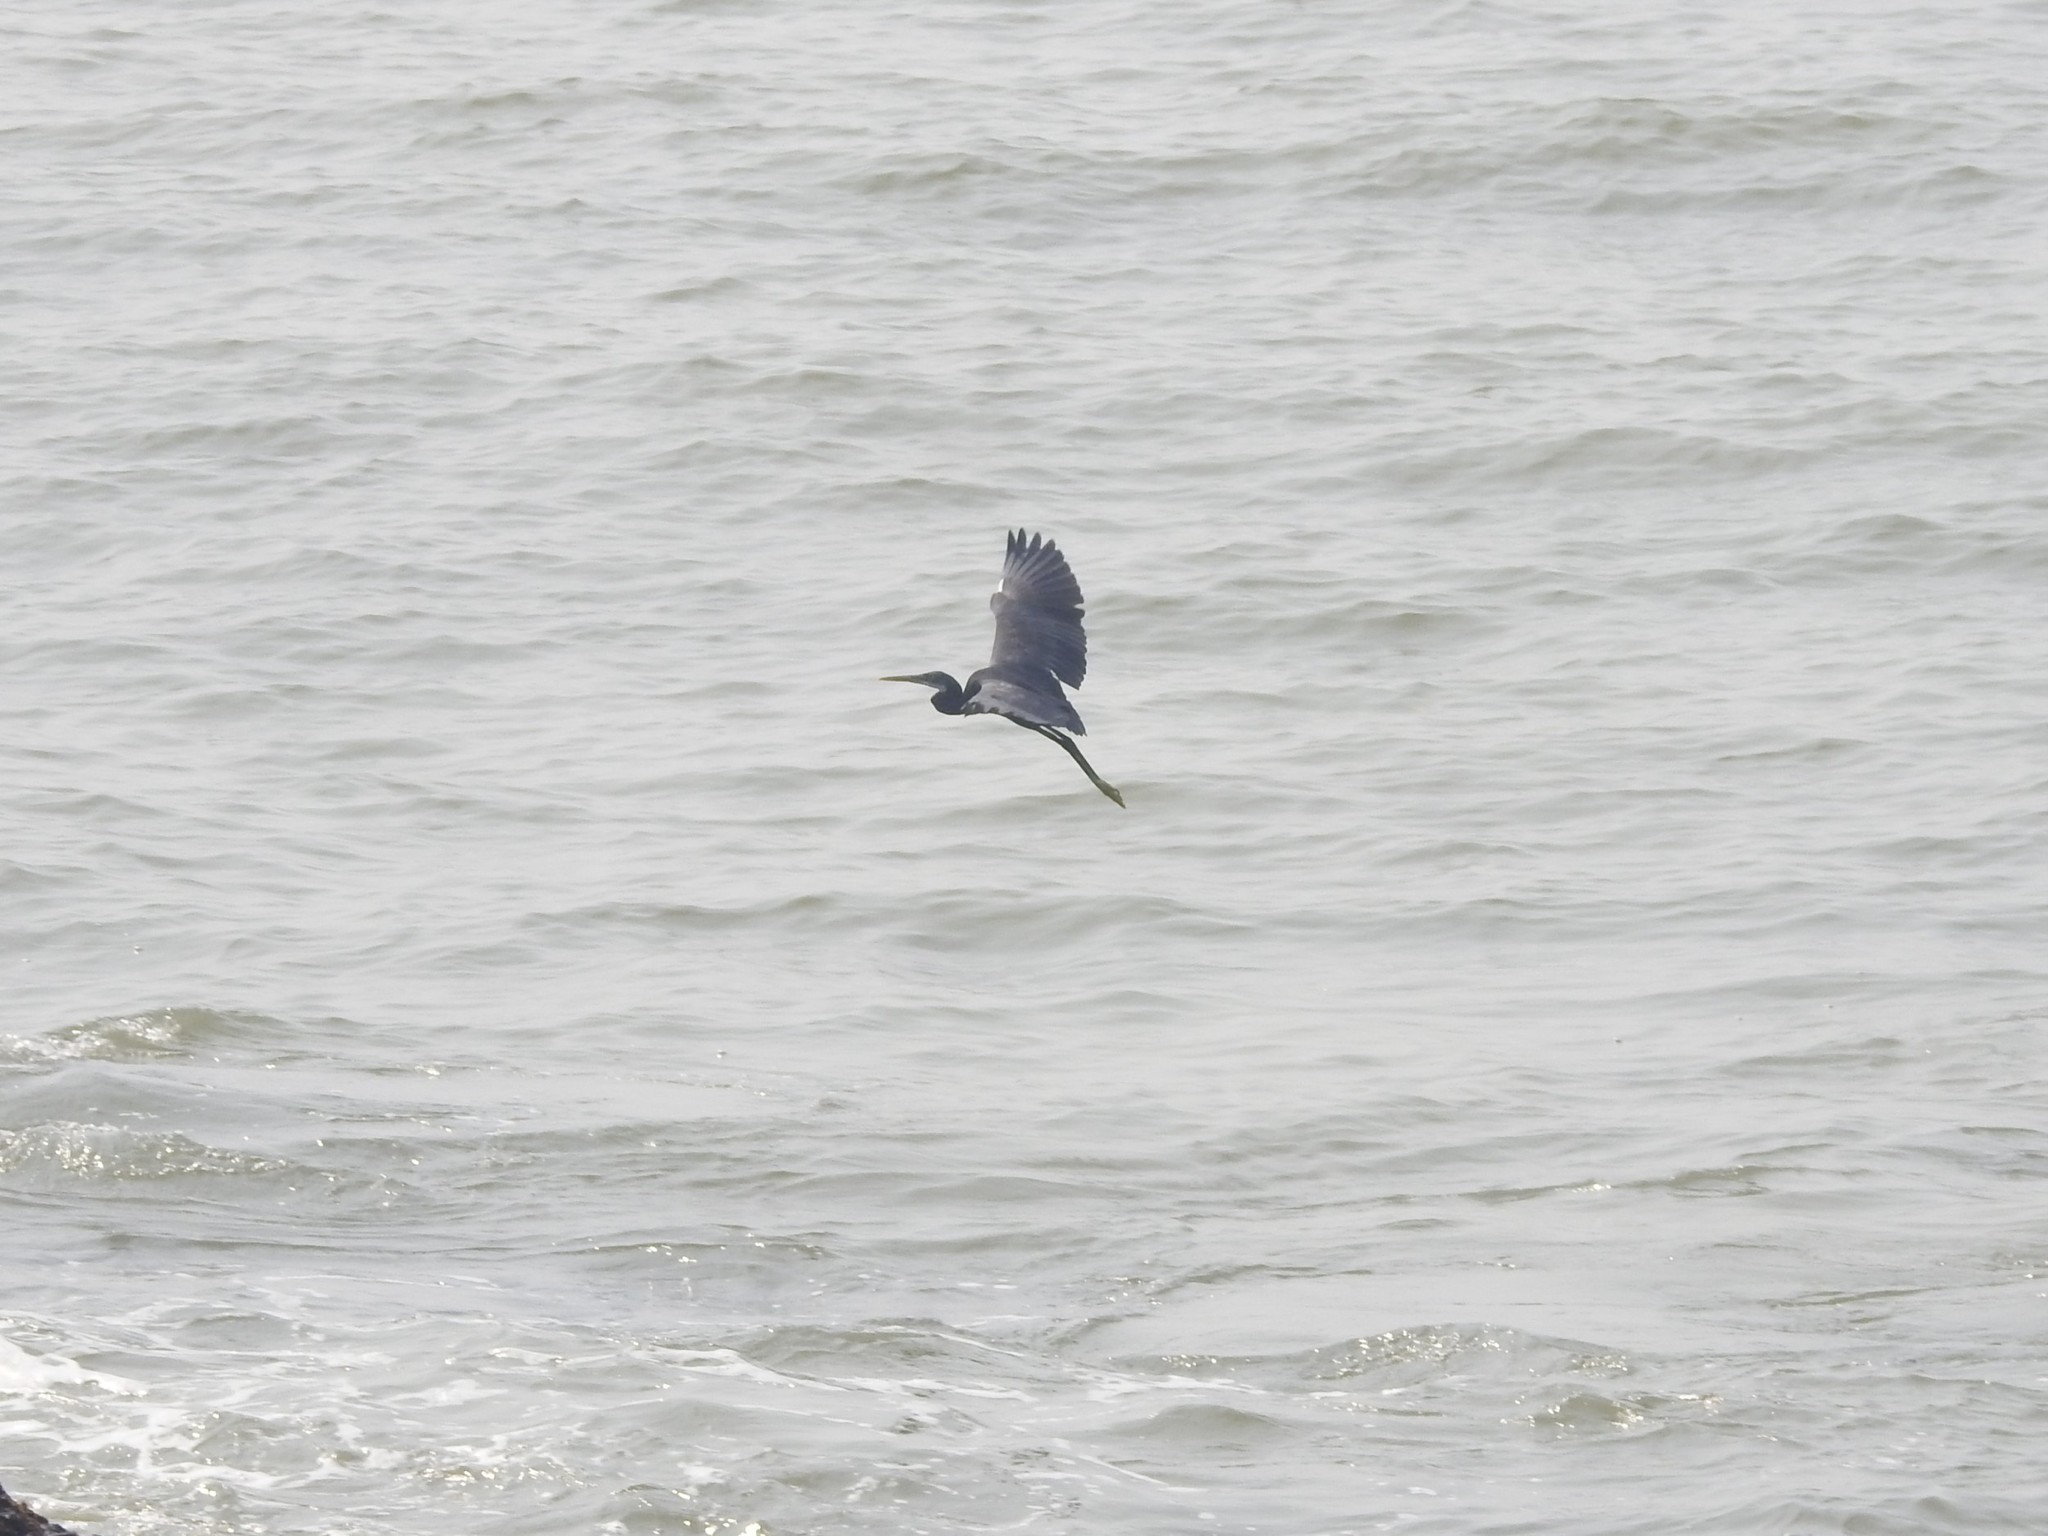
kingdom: Animalia
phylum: Chordata
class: Aves
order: Pelecaniformes
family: Ardeidae
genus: Egretta
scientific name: Egretta gularis
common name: Western reef-heron
